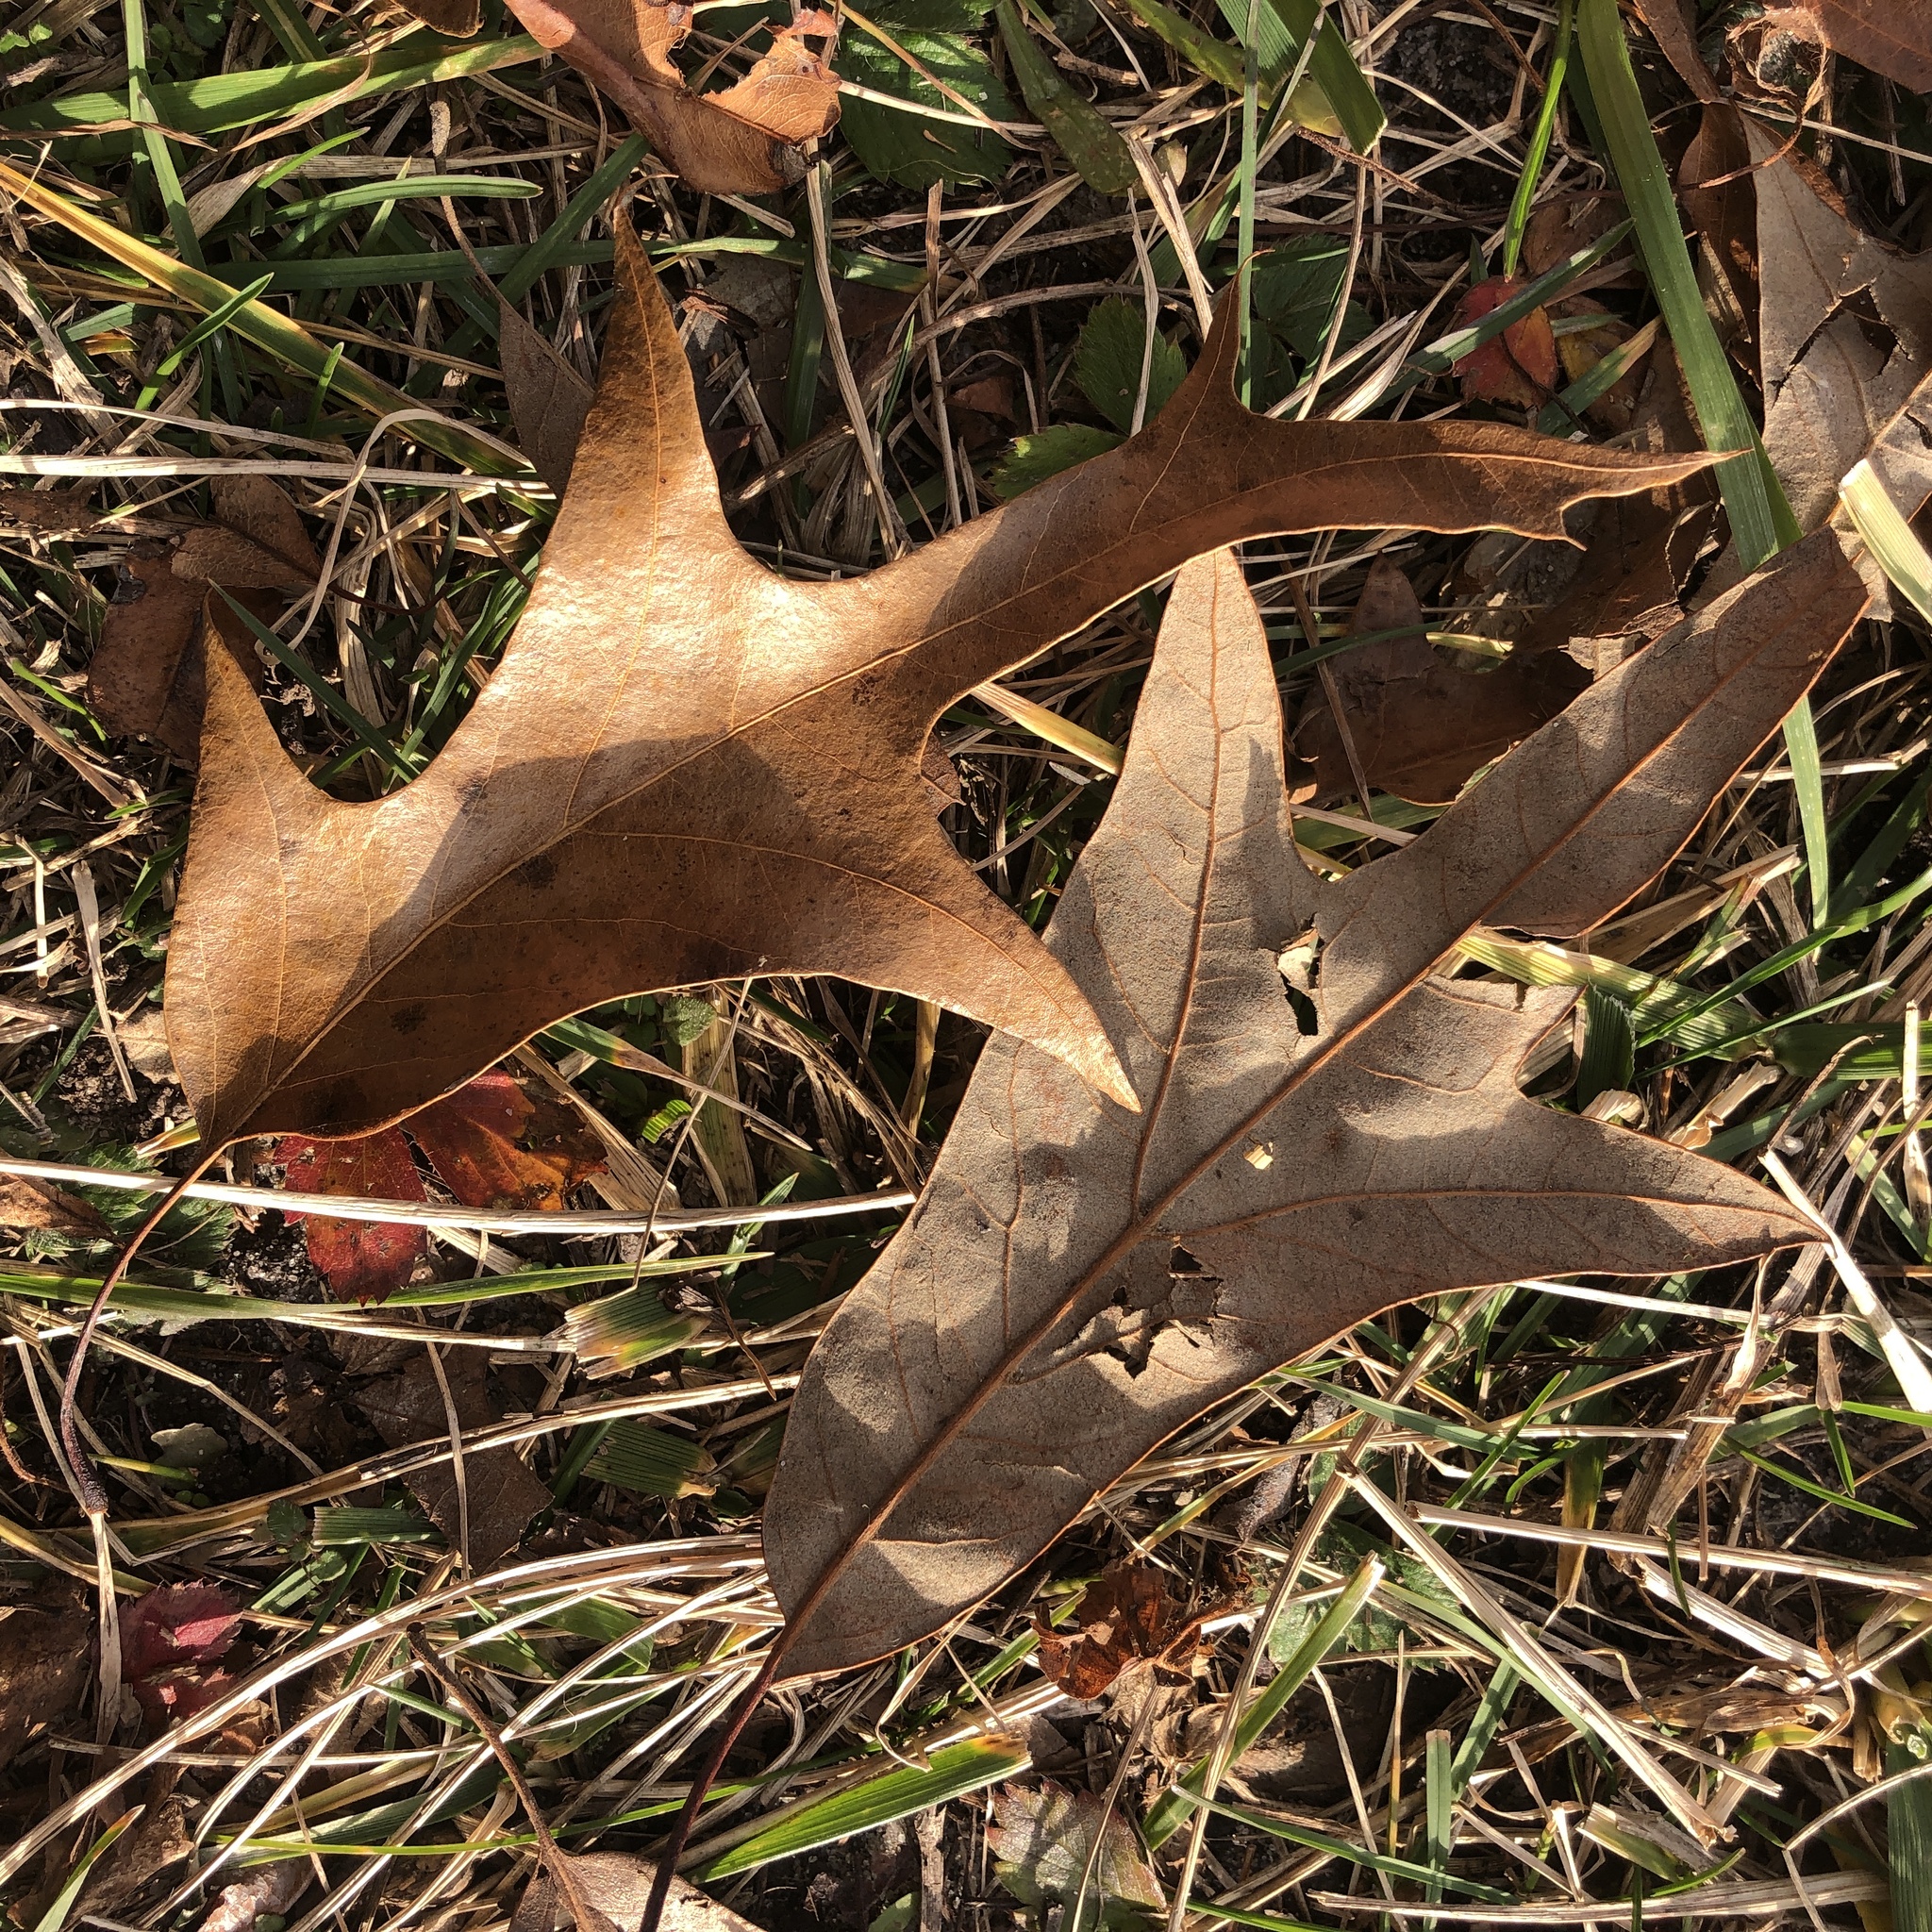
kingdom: Plantae
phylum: Tracheophyta
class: Magnoliopsida
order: Fagales
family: Fagaceae
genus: Quercus
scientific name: Quercus falcata
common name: Southern red oak
